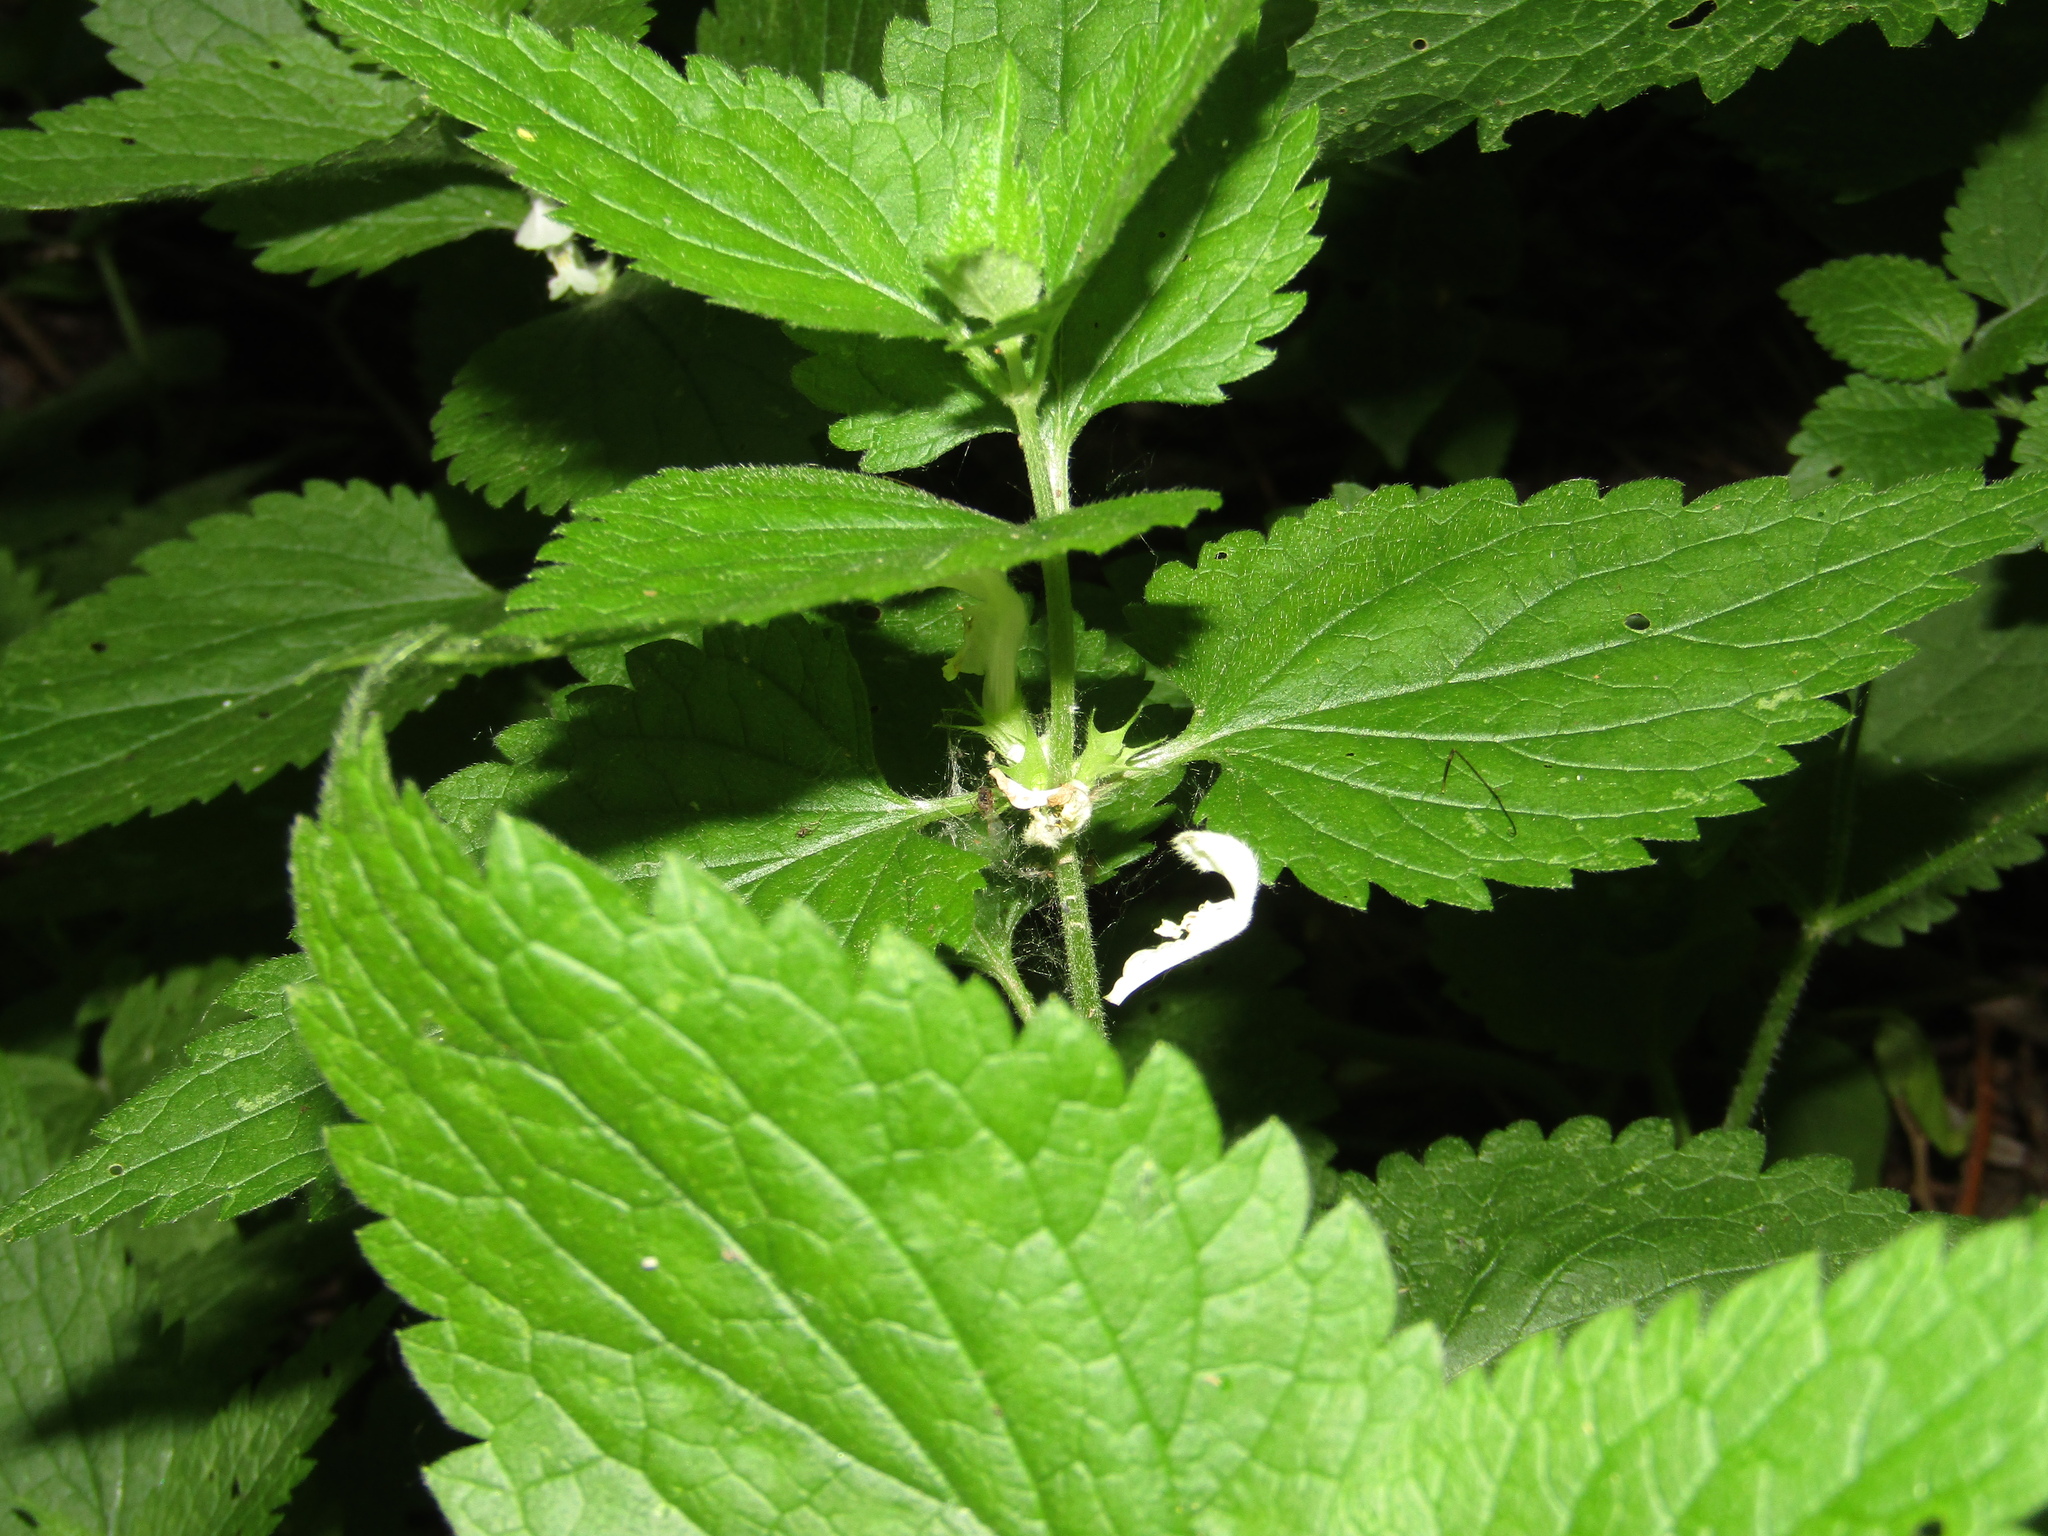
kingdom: Plantae
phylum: Tracheophyta
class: Magnoliopsida
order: Lamiales
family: Lamiaceae
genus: Lamium
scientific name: Lamium album
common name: White dead-nettle
